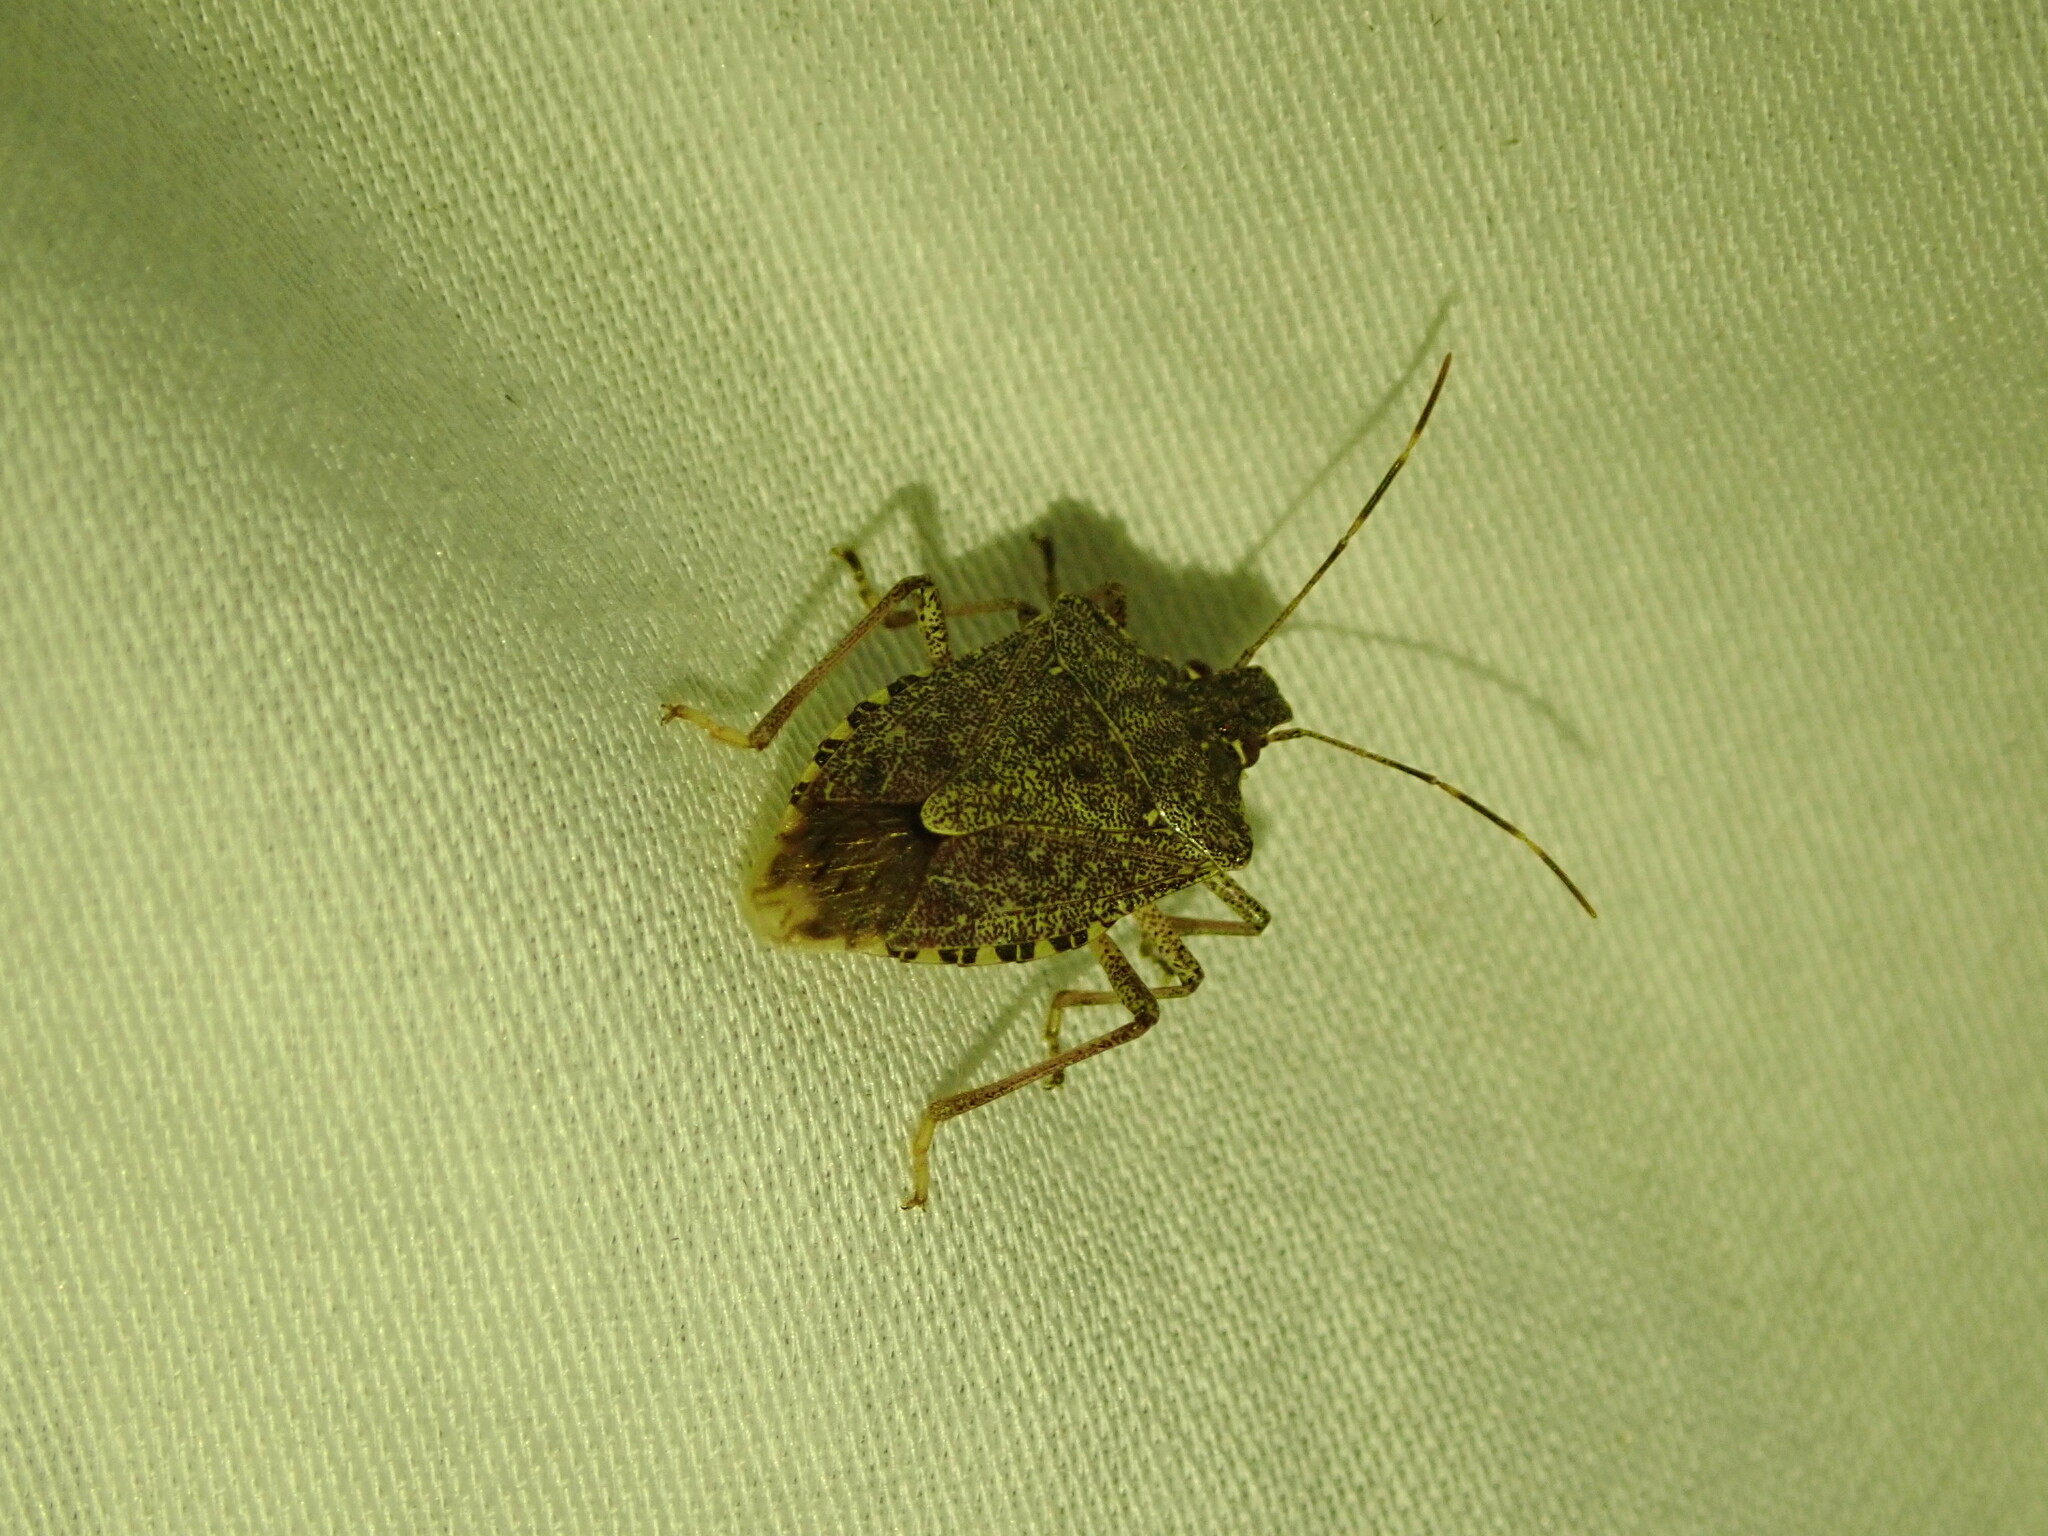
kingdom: Animalia
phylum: Arthropoda
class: Insecta
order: Hemiptera
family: Pentatomidae
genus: Halyomorpha
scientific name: Halyomorpha halys
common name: Brown marmorated stink bug
